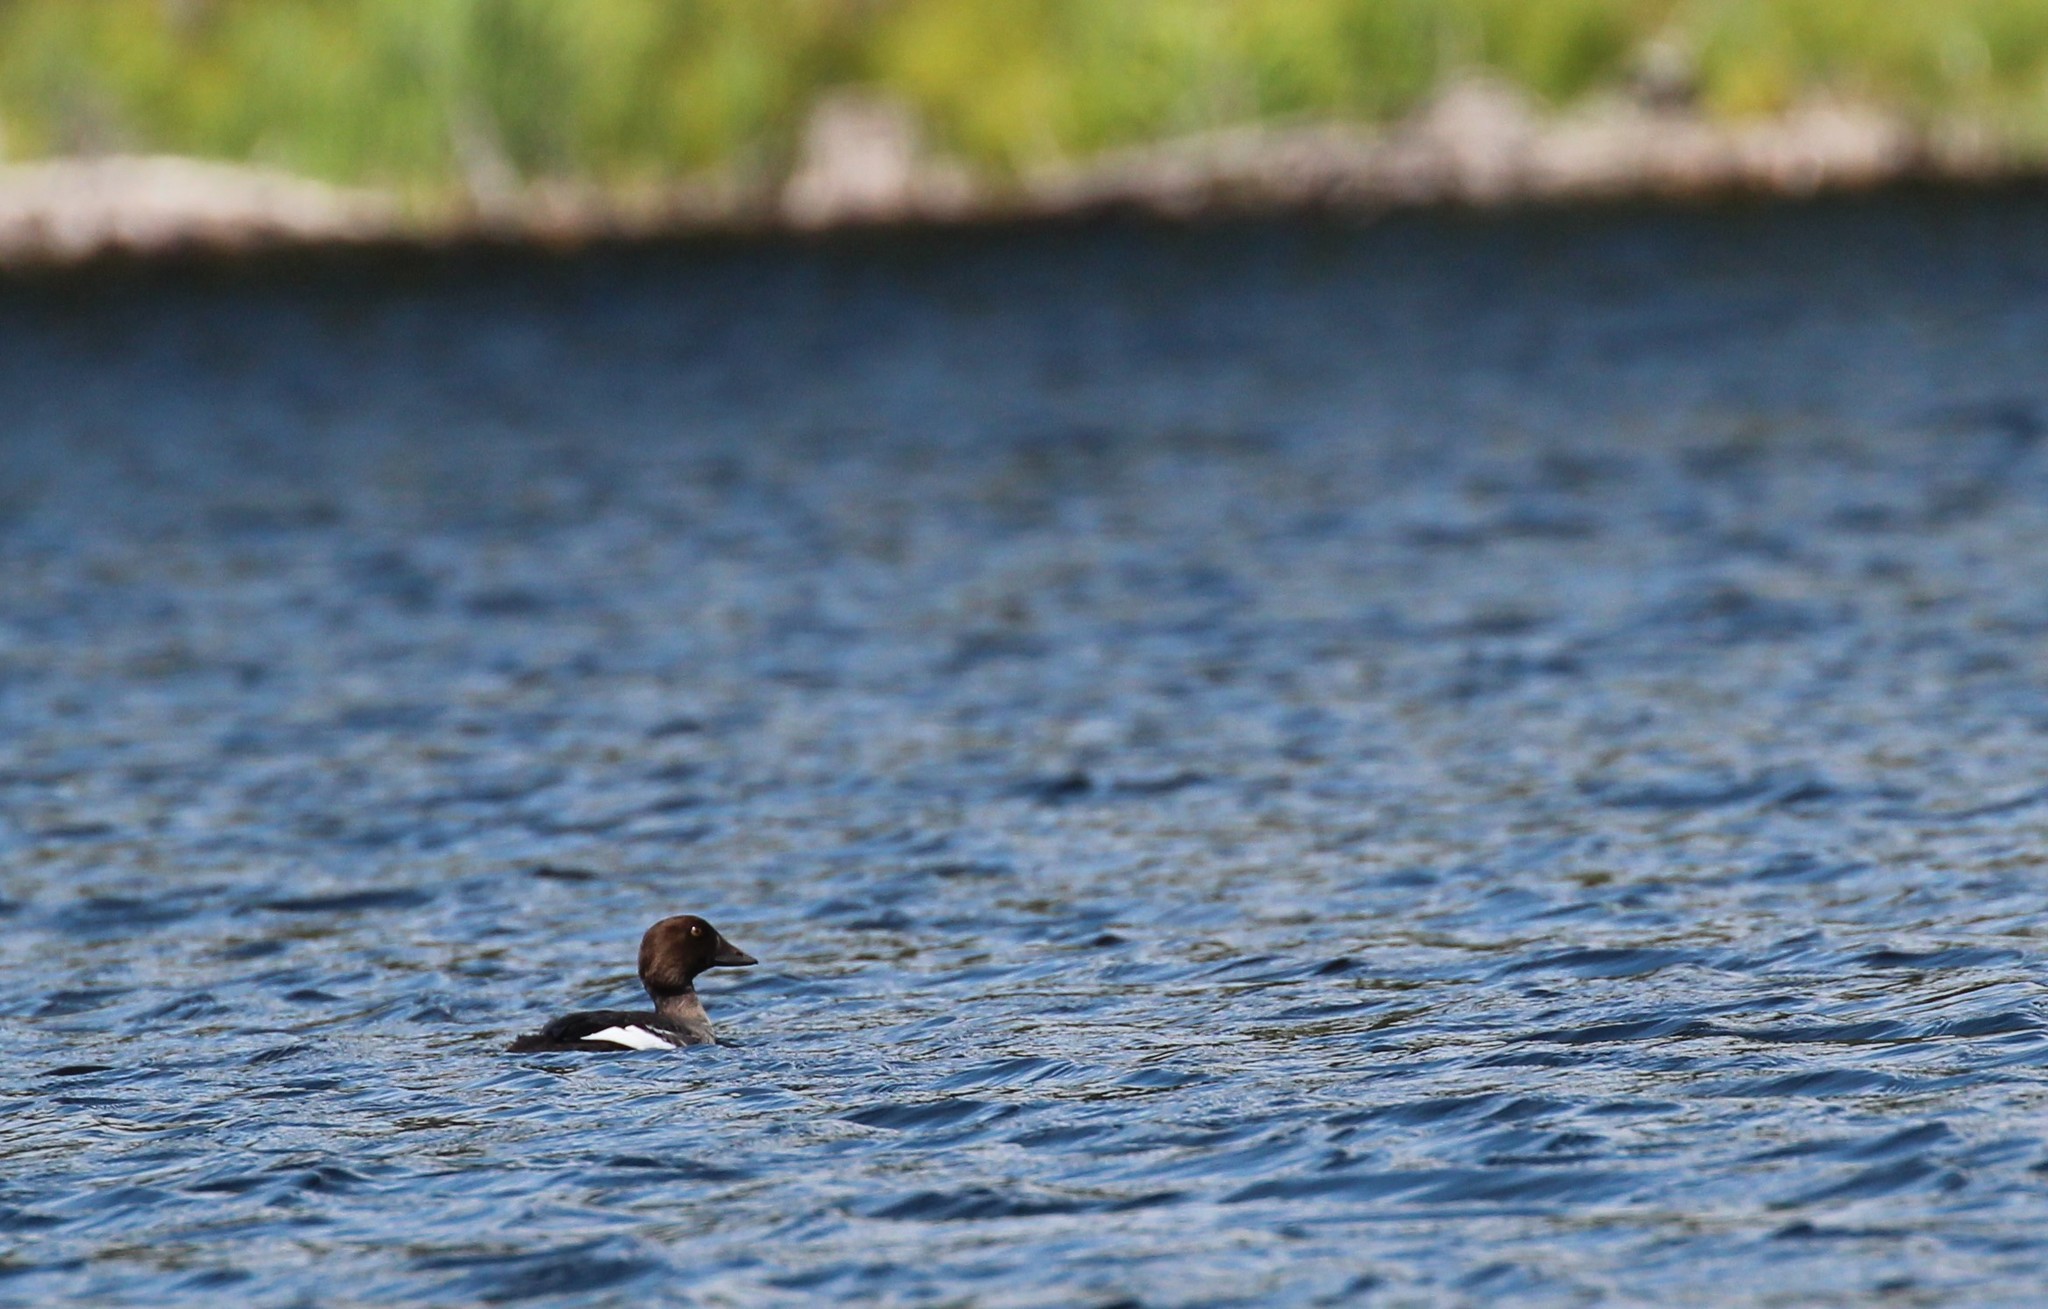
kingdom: Animalia
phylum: Chordata
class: Aves
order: Anseriformes
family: Anatidae
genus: Bucephala
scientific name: Bucephala clangula
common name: Common goldeneye
